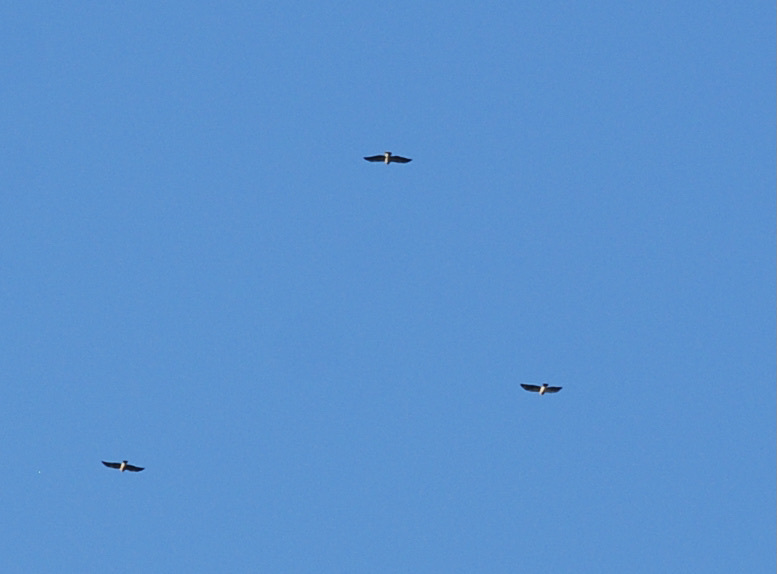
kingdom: Animalia
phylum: Chordata
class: Aves
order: Accipitriformes
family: Accipitridae
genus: Buteo
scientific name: Buteo swainsoni
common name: Swainson's hawk
